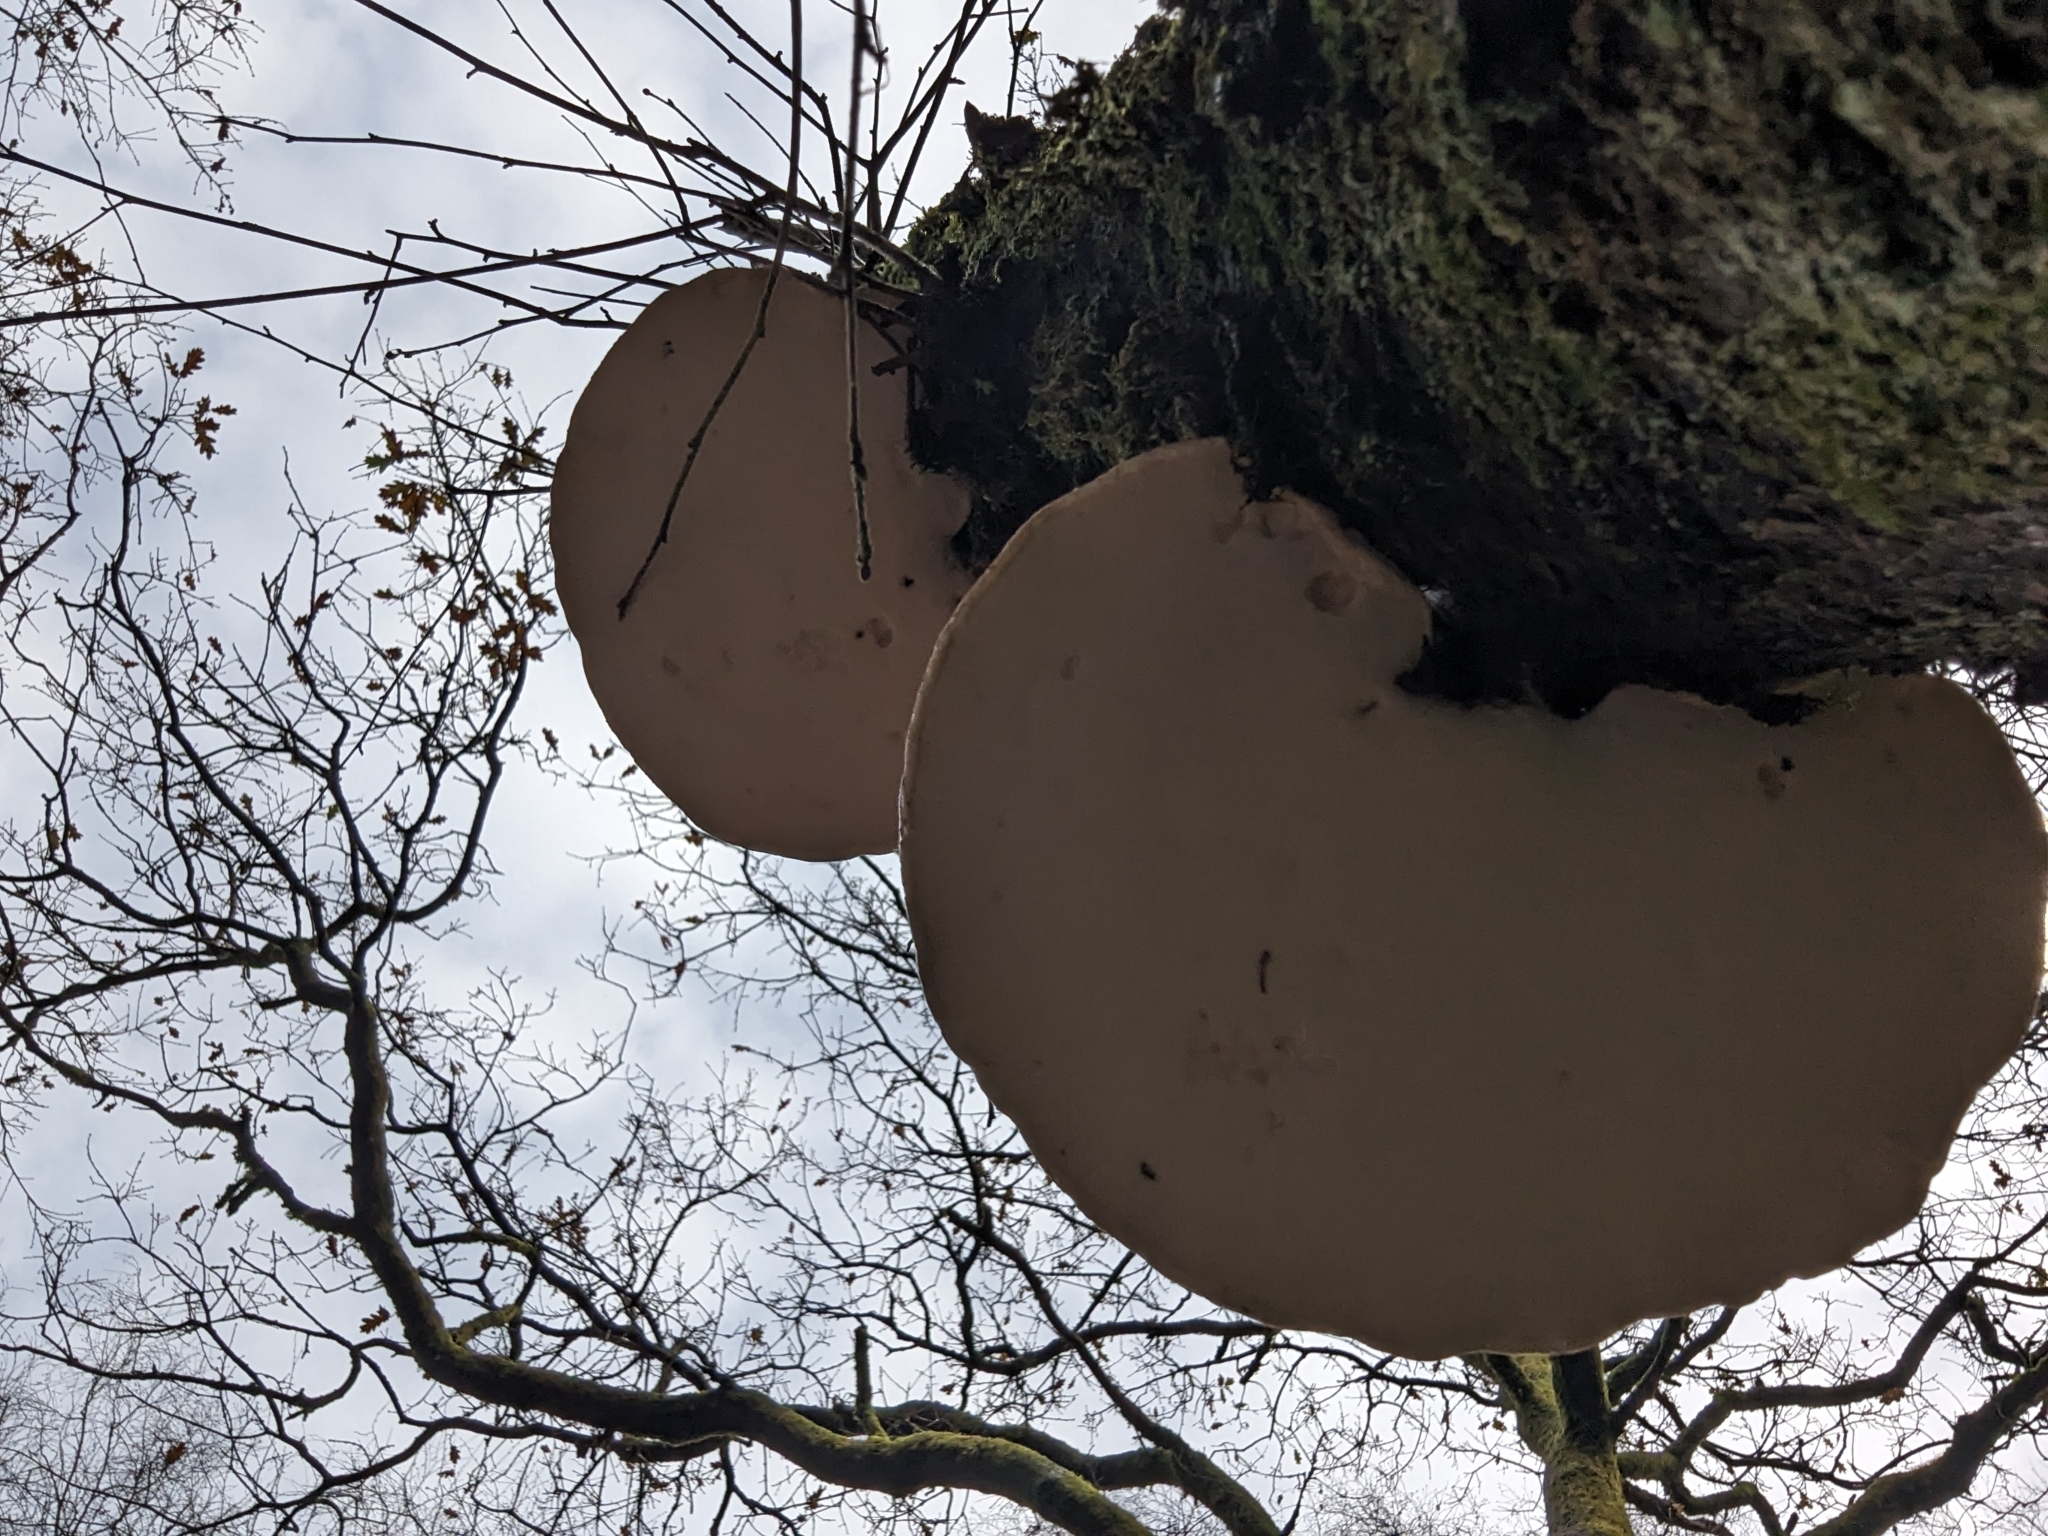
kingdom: Fungi
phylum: Basidiomycota
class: Agaricomycetes
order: Polyporales
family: Fomitopsidaceae
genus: Fomitopsis
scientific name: Fomitopsis betulina
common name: Birch polypore
